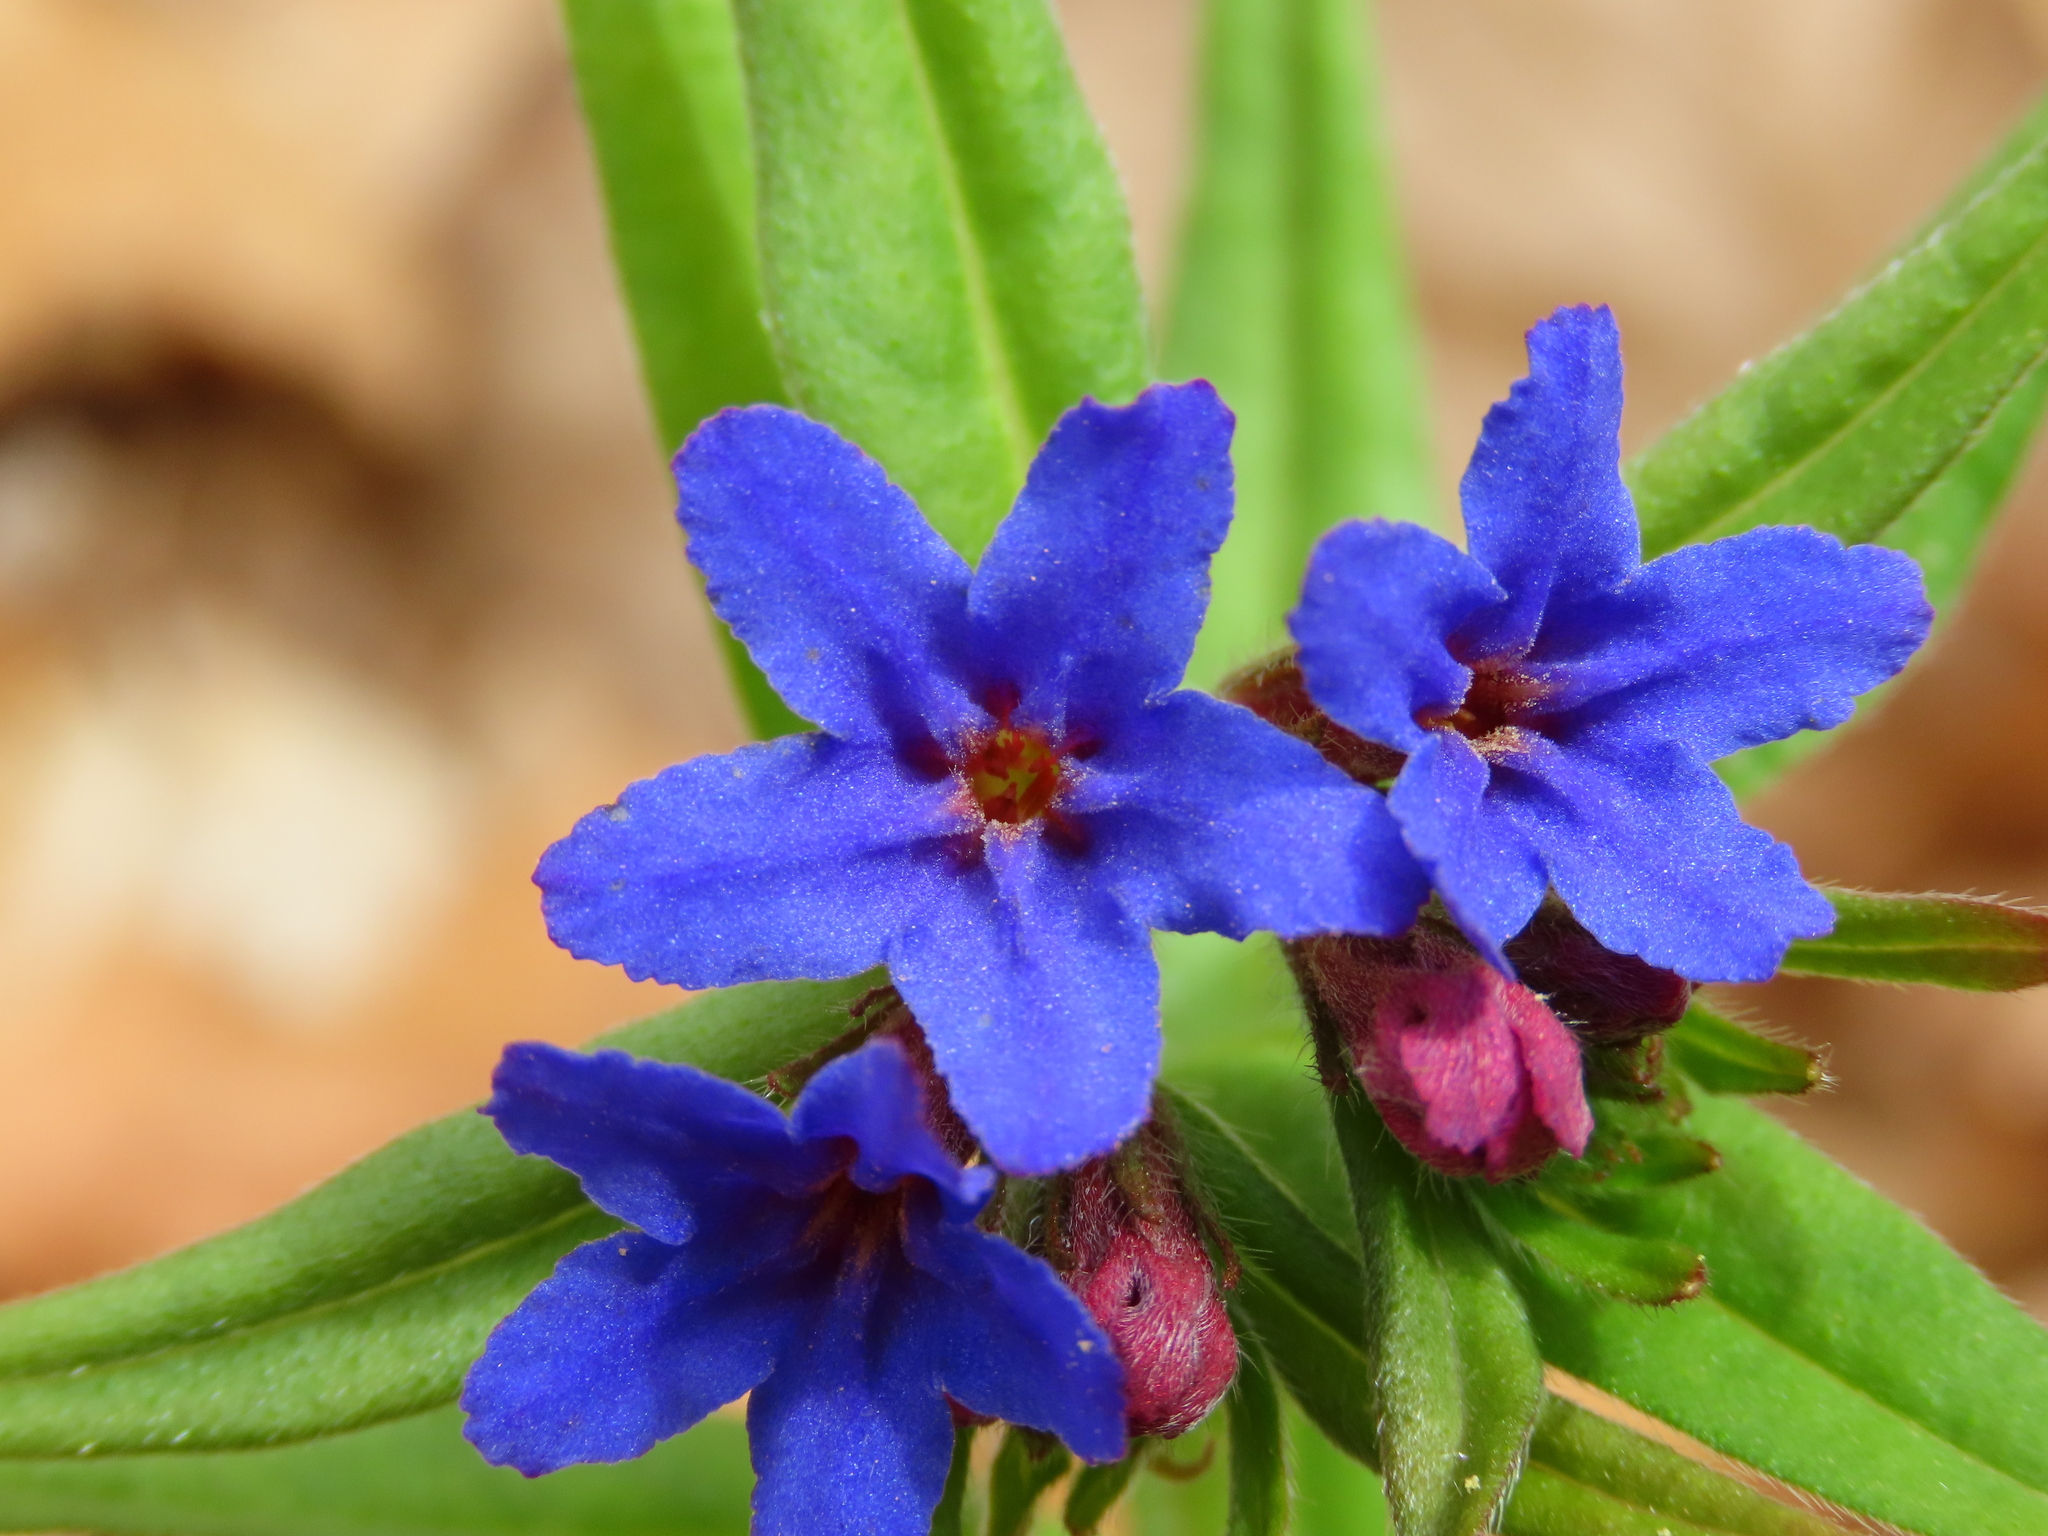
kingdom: Plantae
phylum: Tracheophyta
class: Magnoliopsida
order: Boraginales
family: Boraginaceae
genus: Aegonychon
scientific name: Aegonychon purpurocaeruleum
